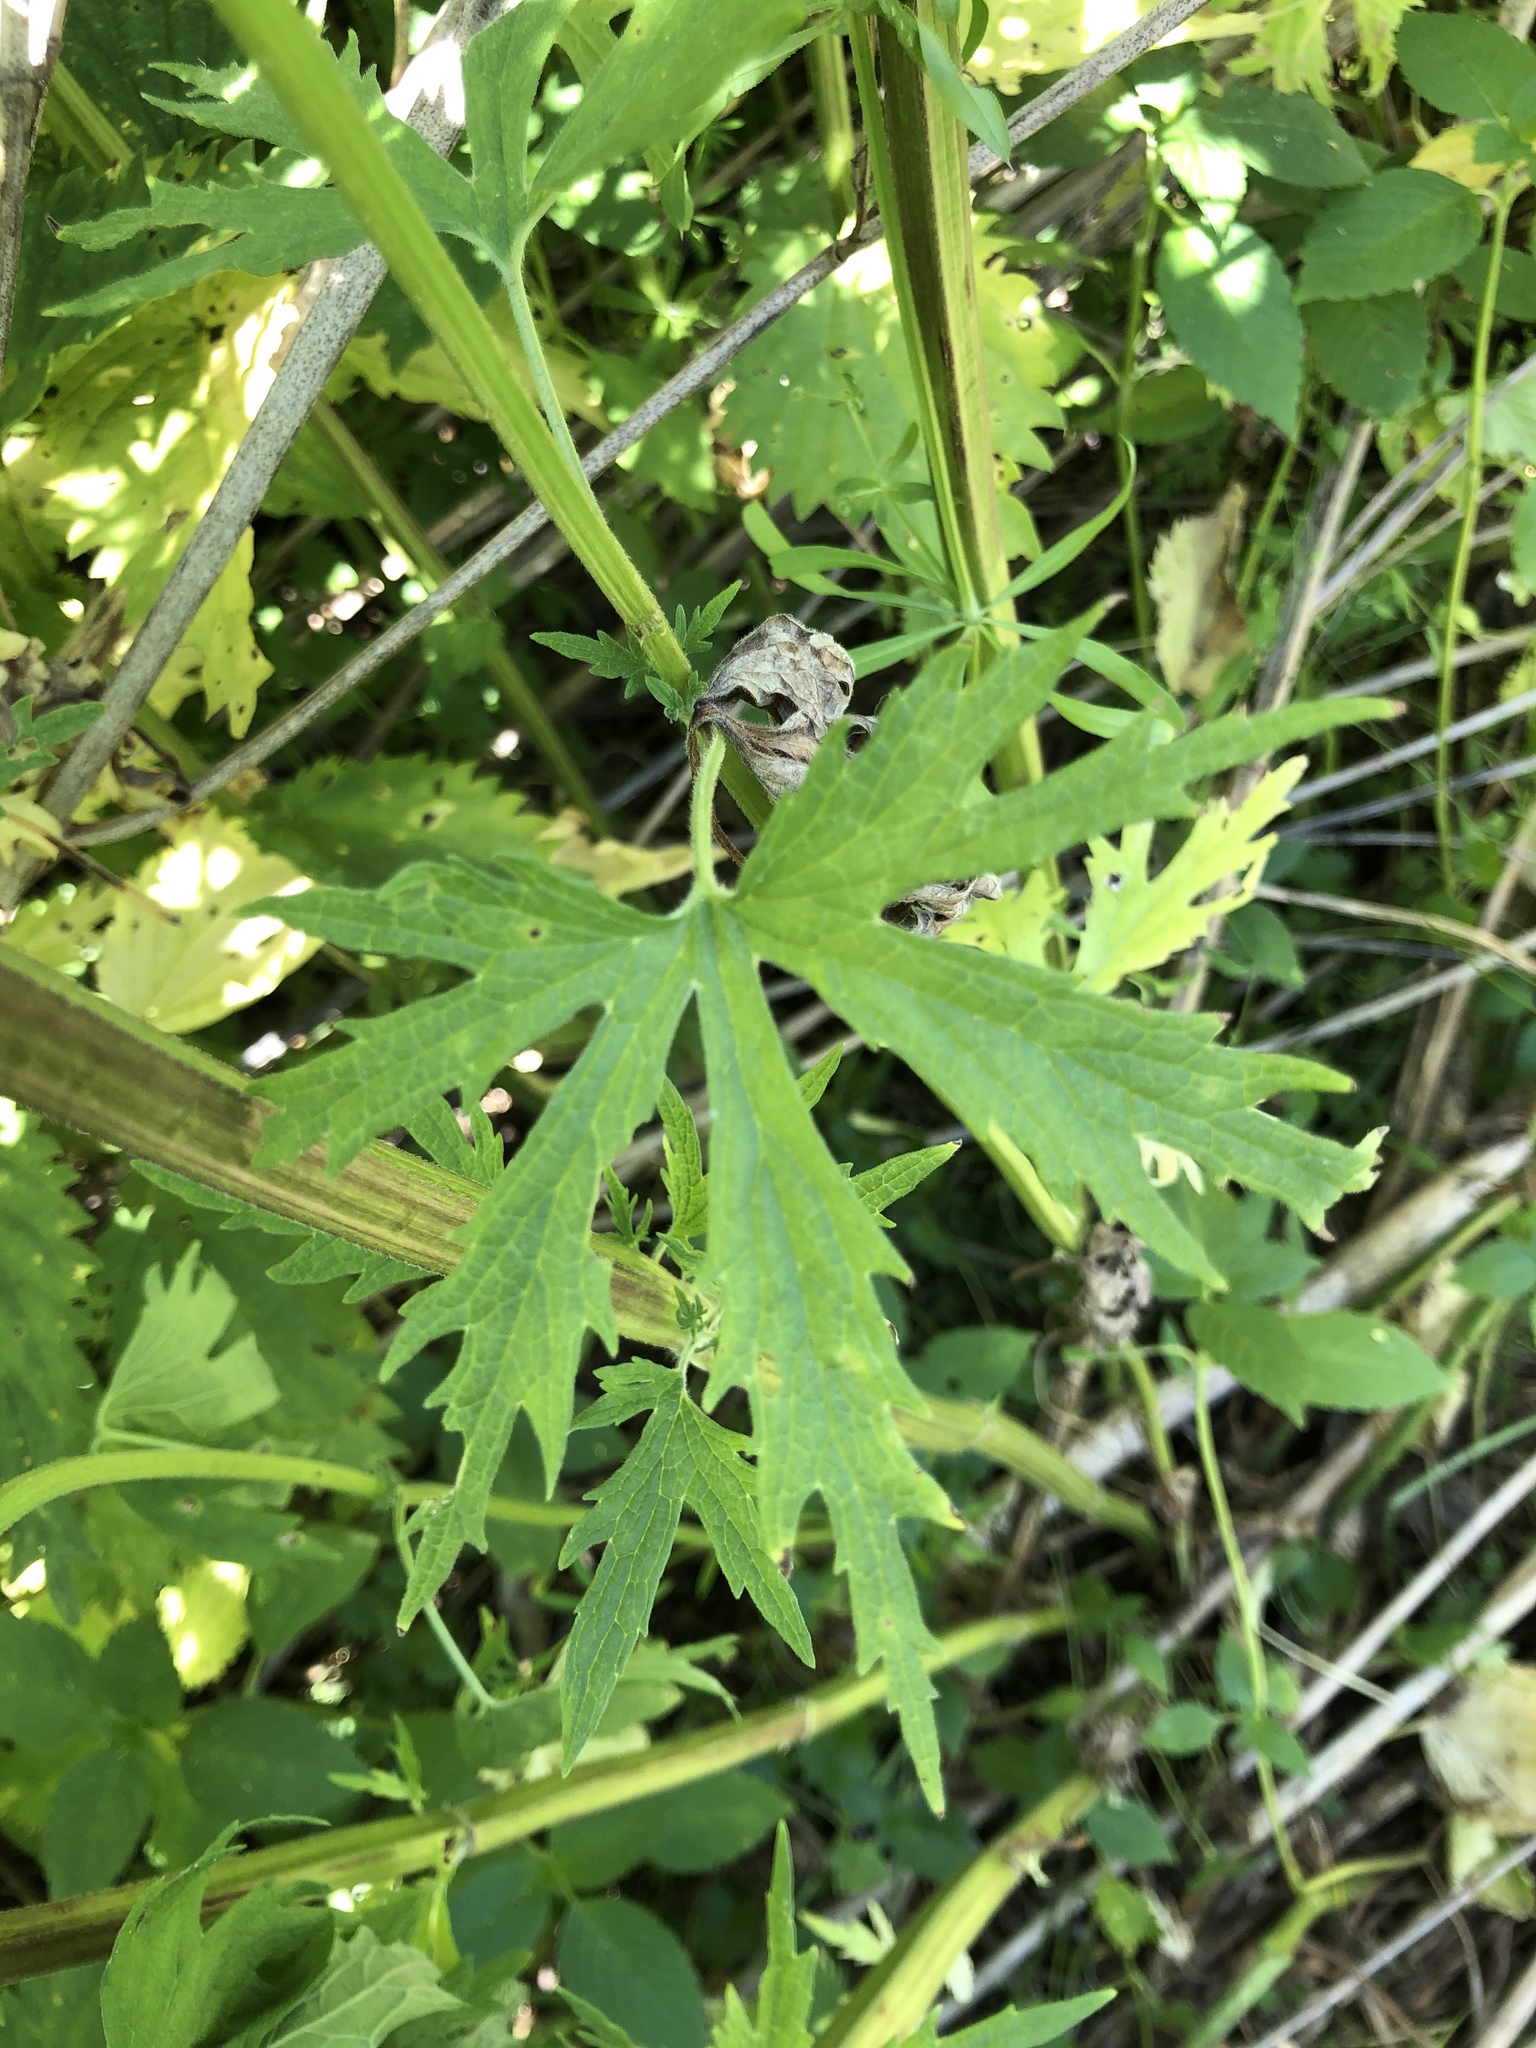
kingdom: Plantae
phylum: Tracheophyta
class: Magnoliopsida
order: Lamiales
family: Lamiaceae
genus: Leonurus
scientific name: Leonurus glaucescens
